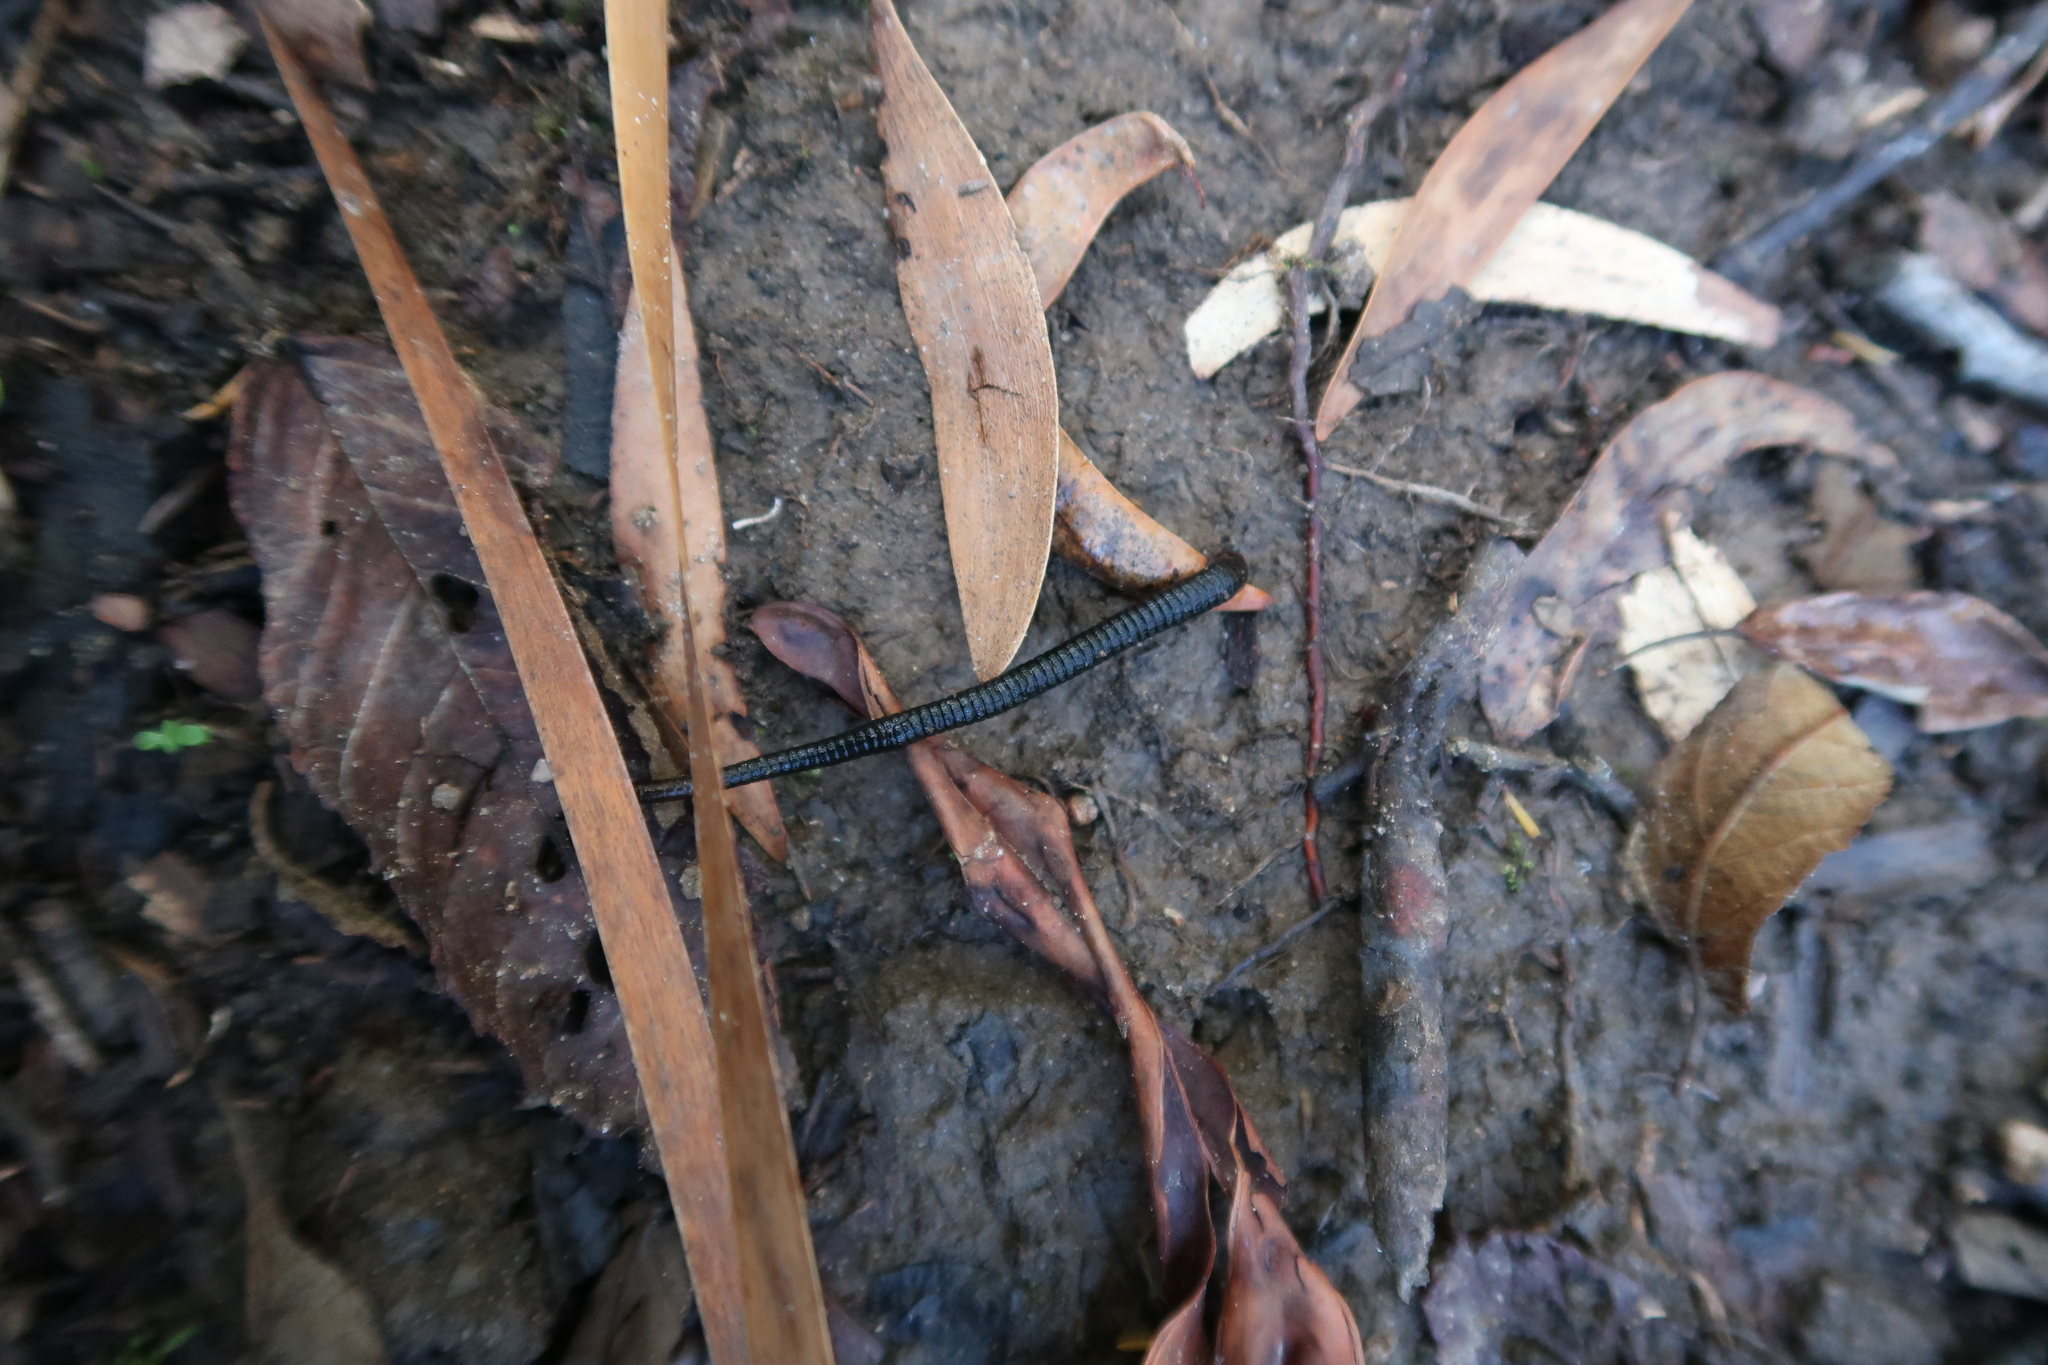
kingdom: Animalia
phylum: Annelida
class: Clitellata
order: Arhynchobdellida
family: Haemadipsidae
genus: Philaemon
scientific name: Philaemon pungens
